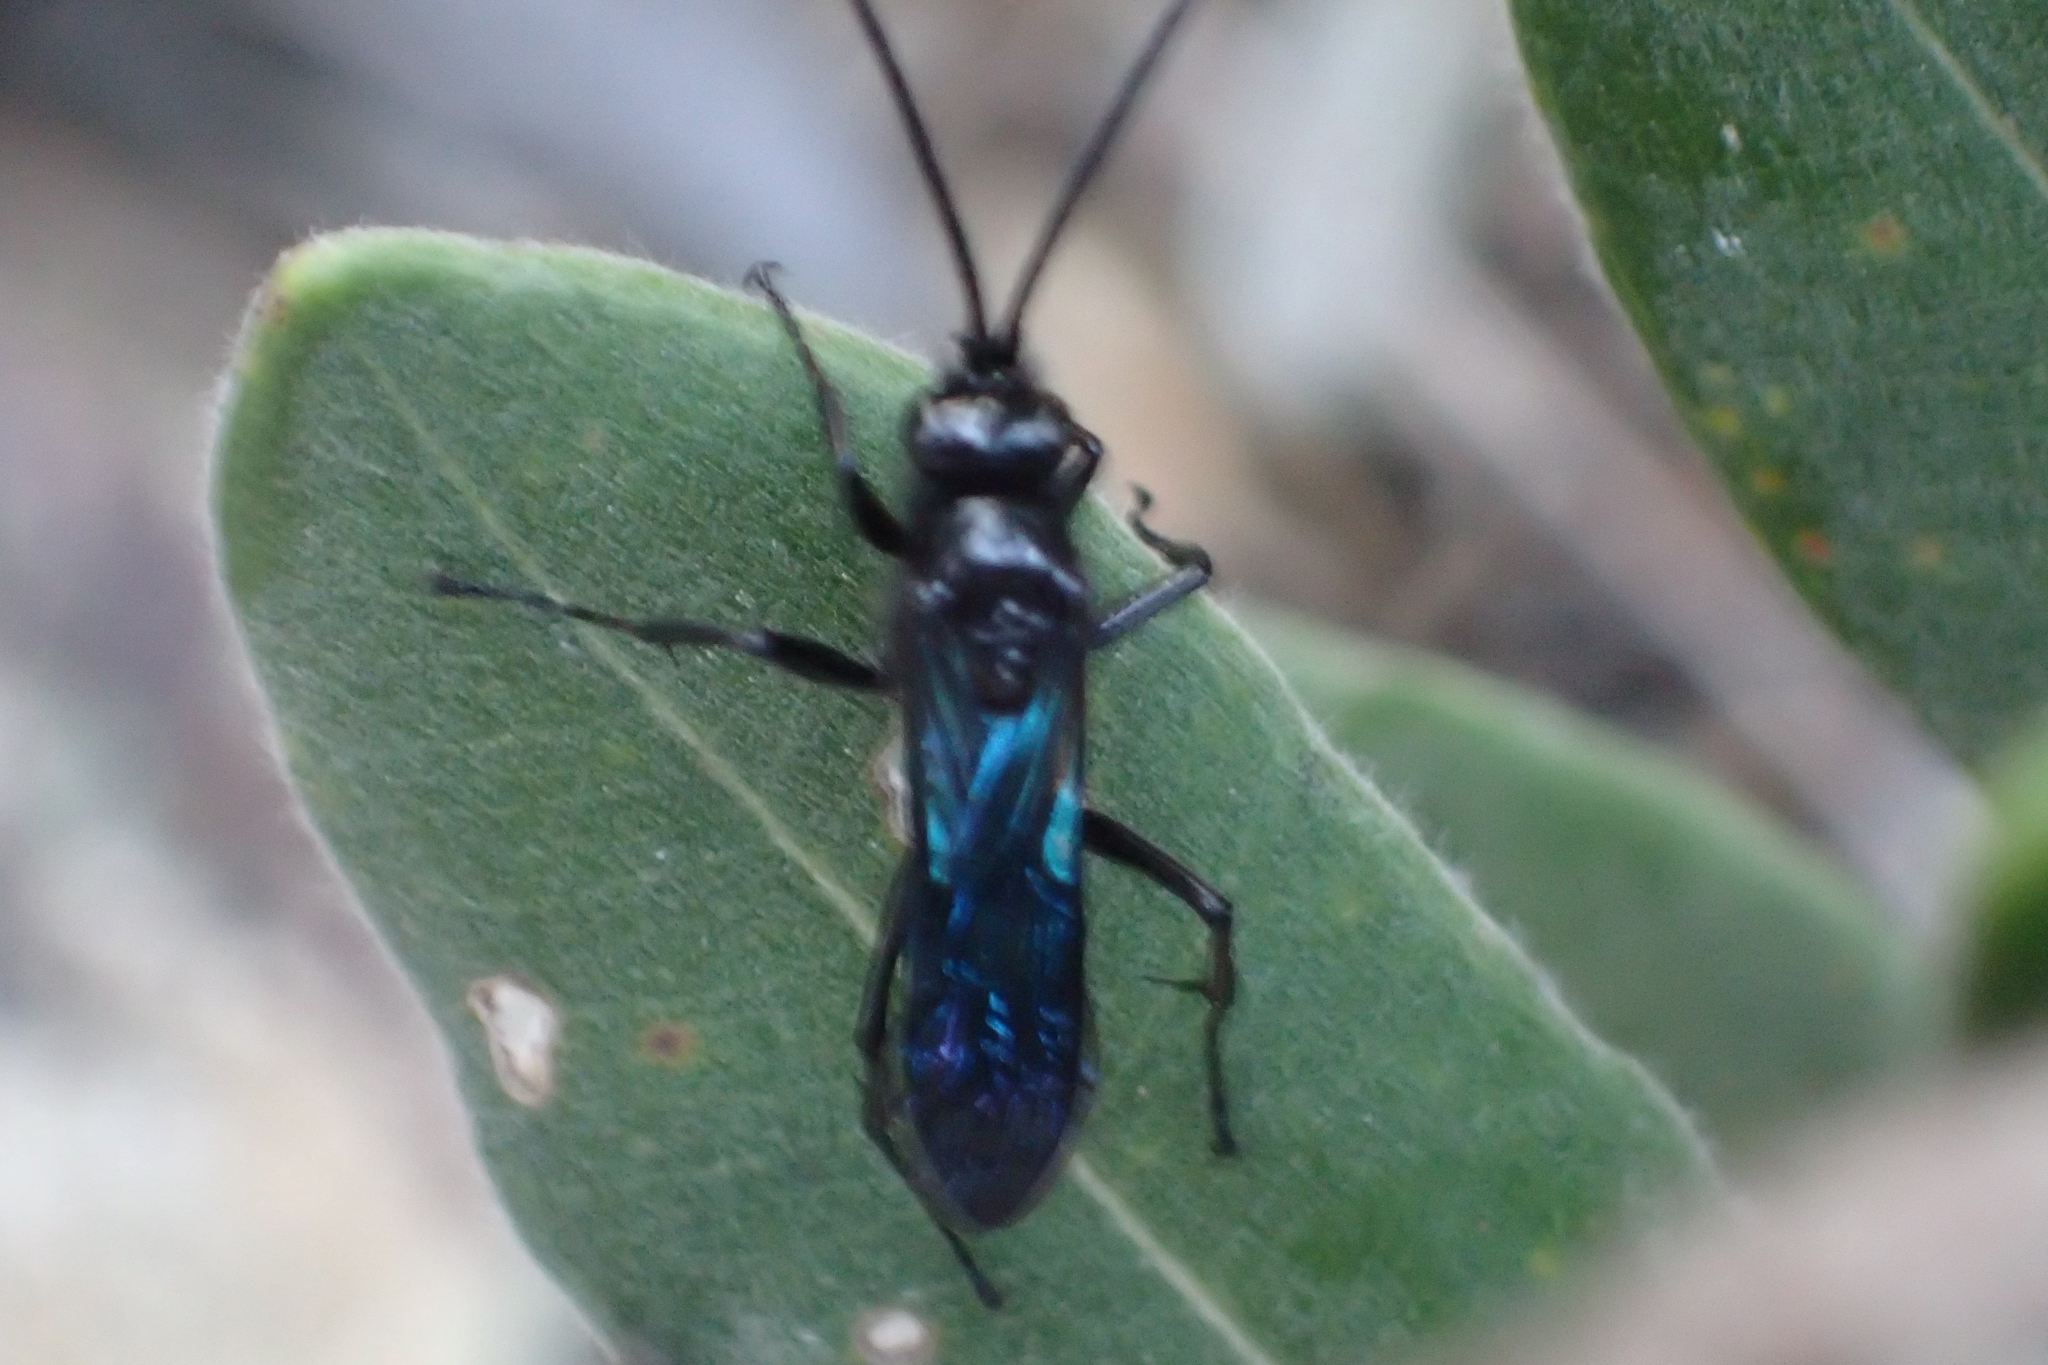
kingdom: Animalia
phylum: Arthropoda
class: Insecta
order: Hymenoptera
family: Pompilidae
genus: Priocnemis
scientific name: Priocnemis monachus
